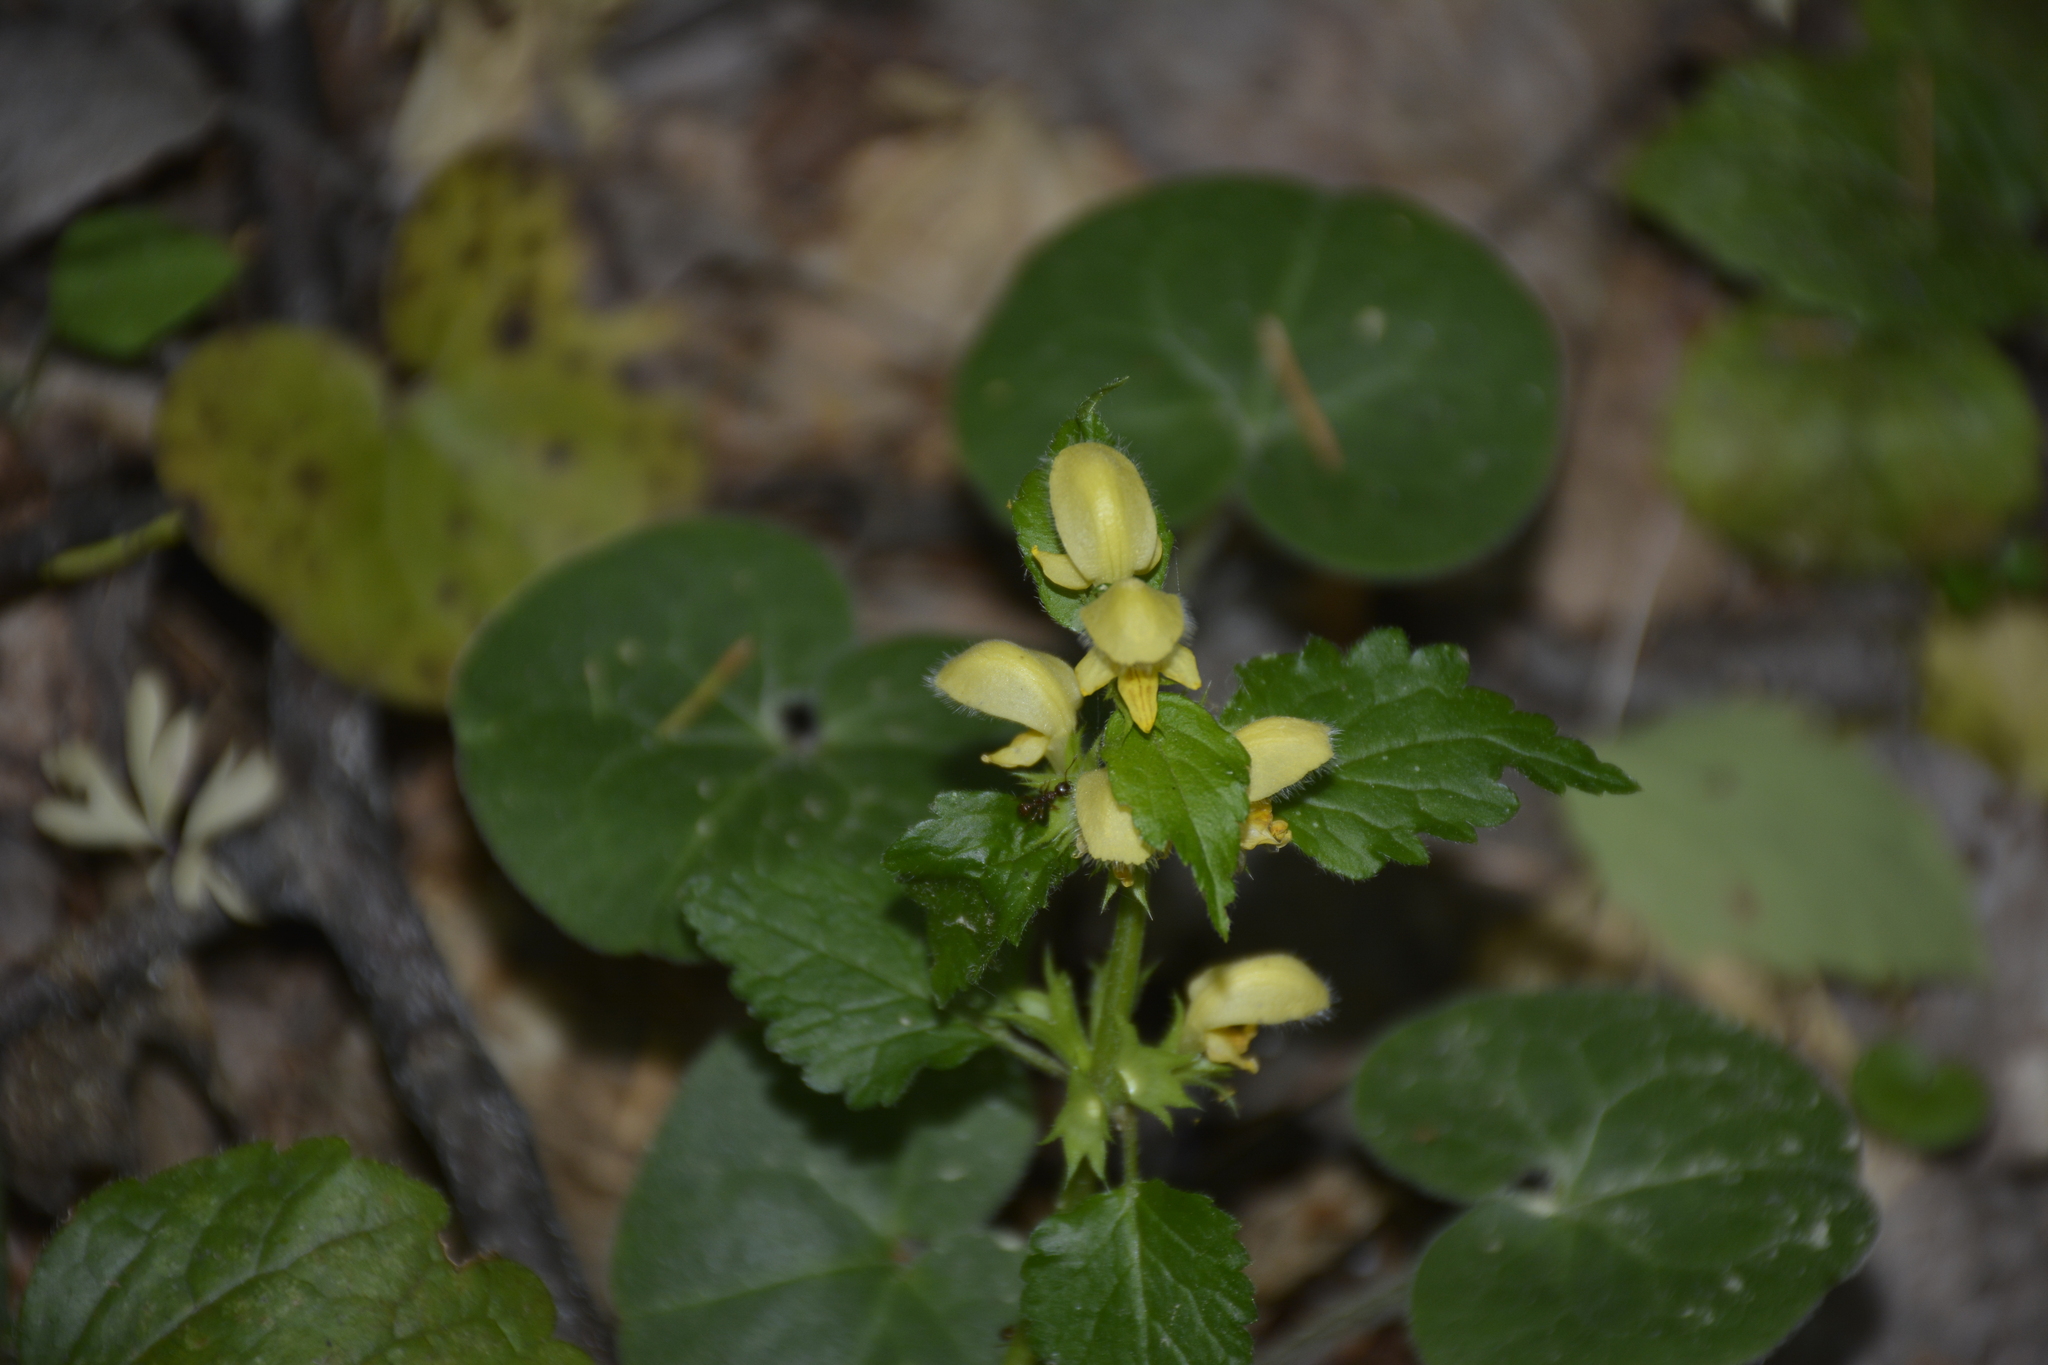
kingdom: Plantae
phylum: Tracheophyta
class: Magnoliopsida
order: Lamiales
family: Lamiaceae
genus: Lamium
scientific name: Lamium galeobdolon
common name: Yellow archangel
